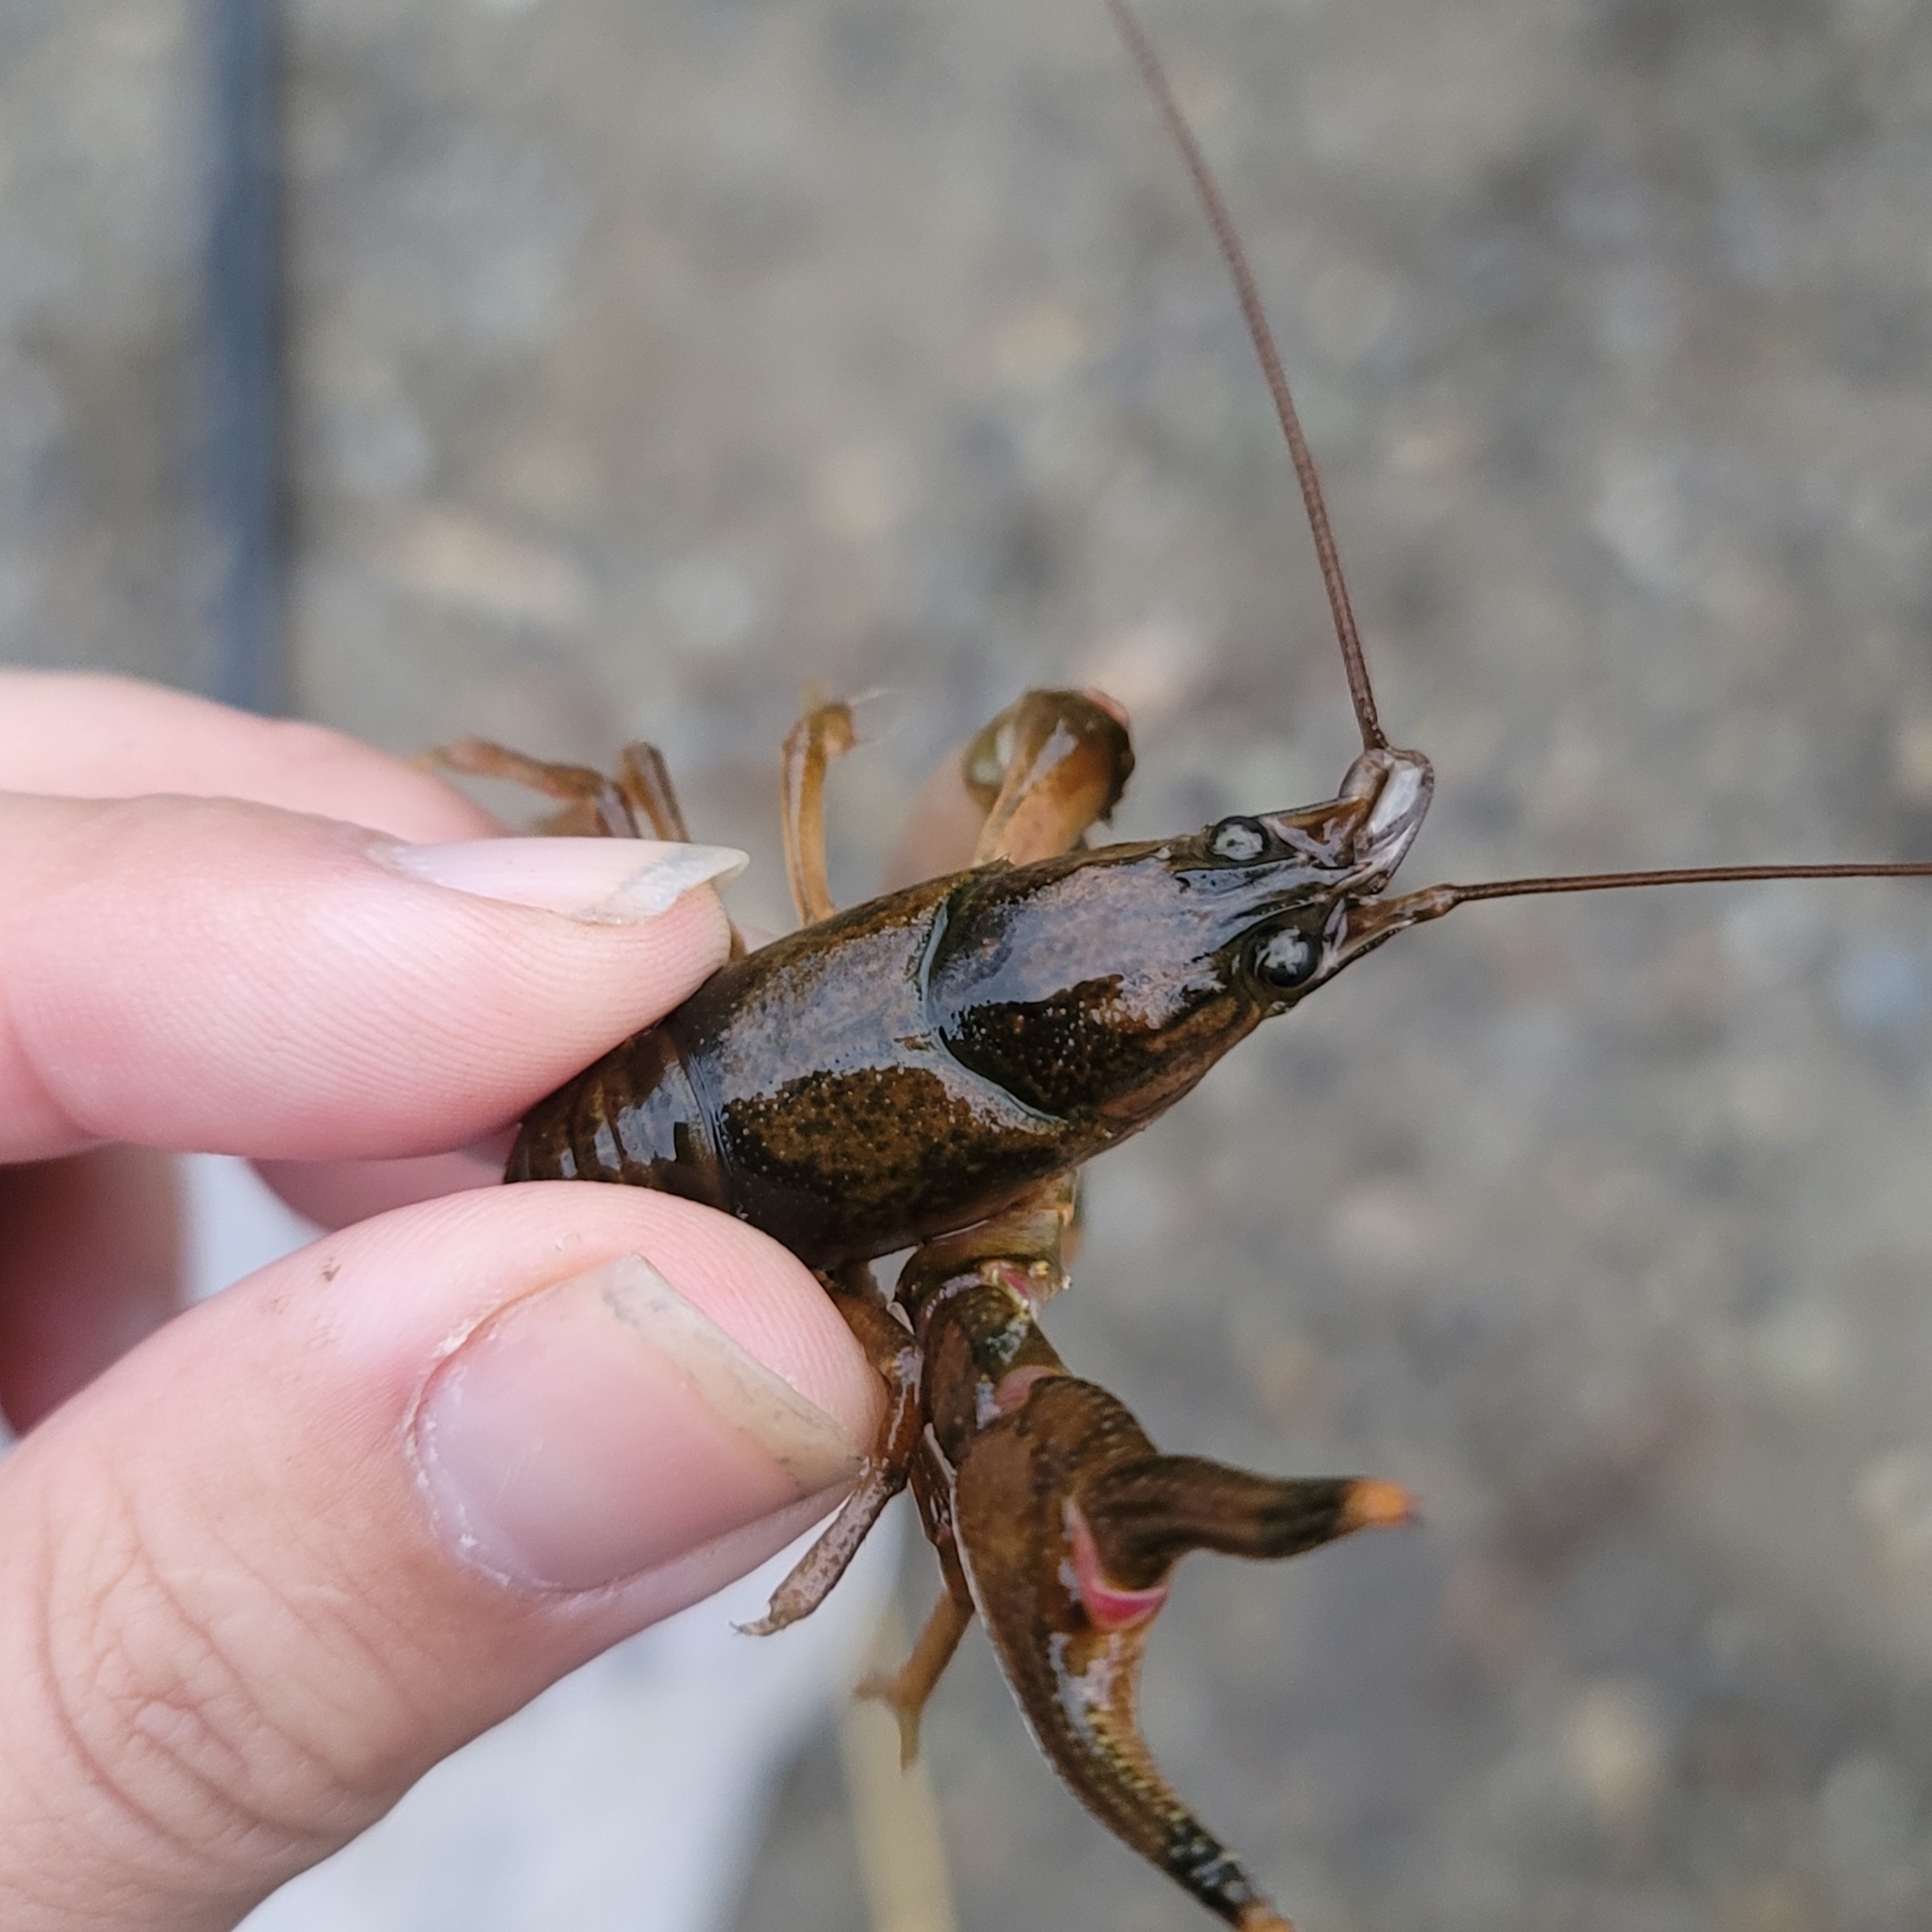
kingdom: Animalia
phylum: Arthropoda
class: Malacostraca
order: Decapoda
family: Cambaridae
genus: Faxonius
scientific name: Faxonius placidus
